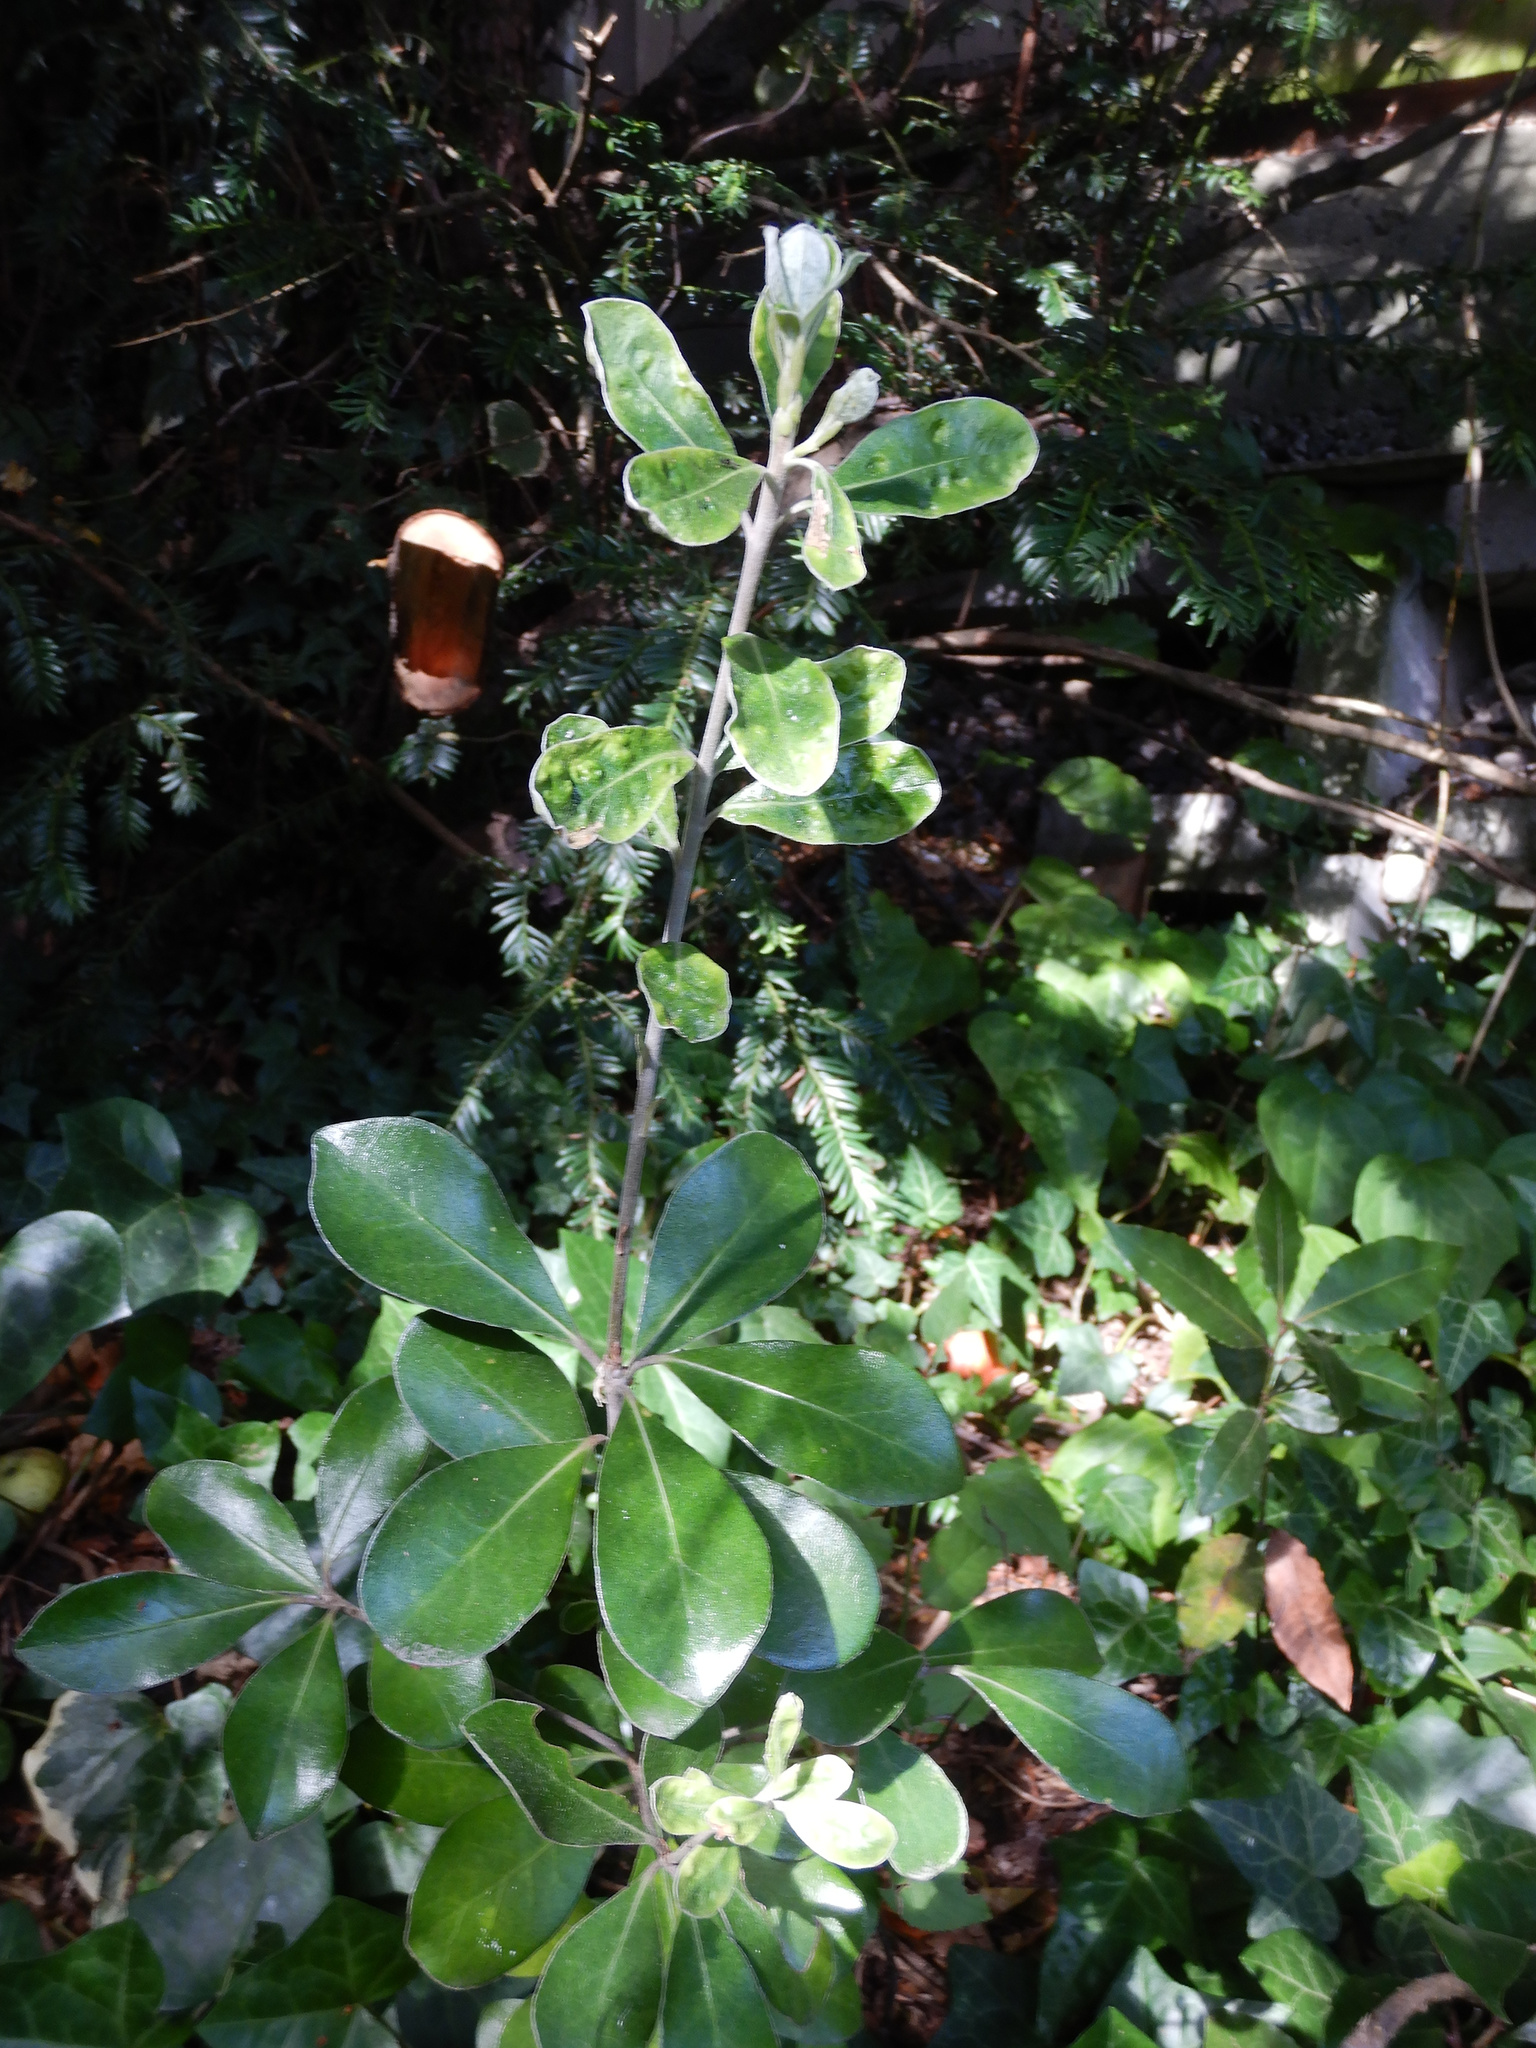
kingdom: Plantae
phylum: Tracheophyta
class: Magnoliopsida
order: Apiales
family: Pittosporaceae
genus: Pittosporum
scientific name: Pittosporum crassifolium
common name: Karo
